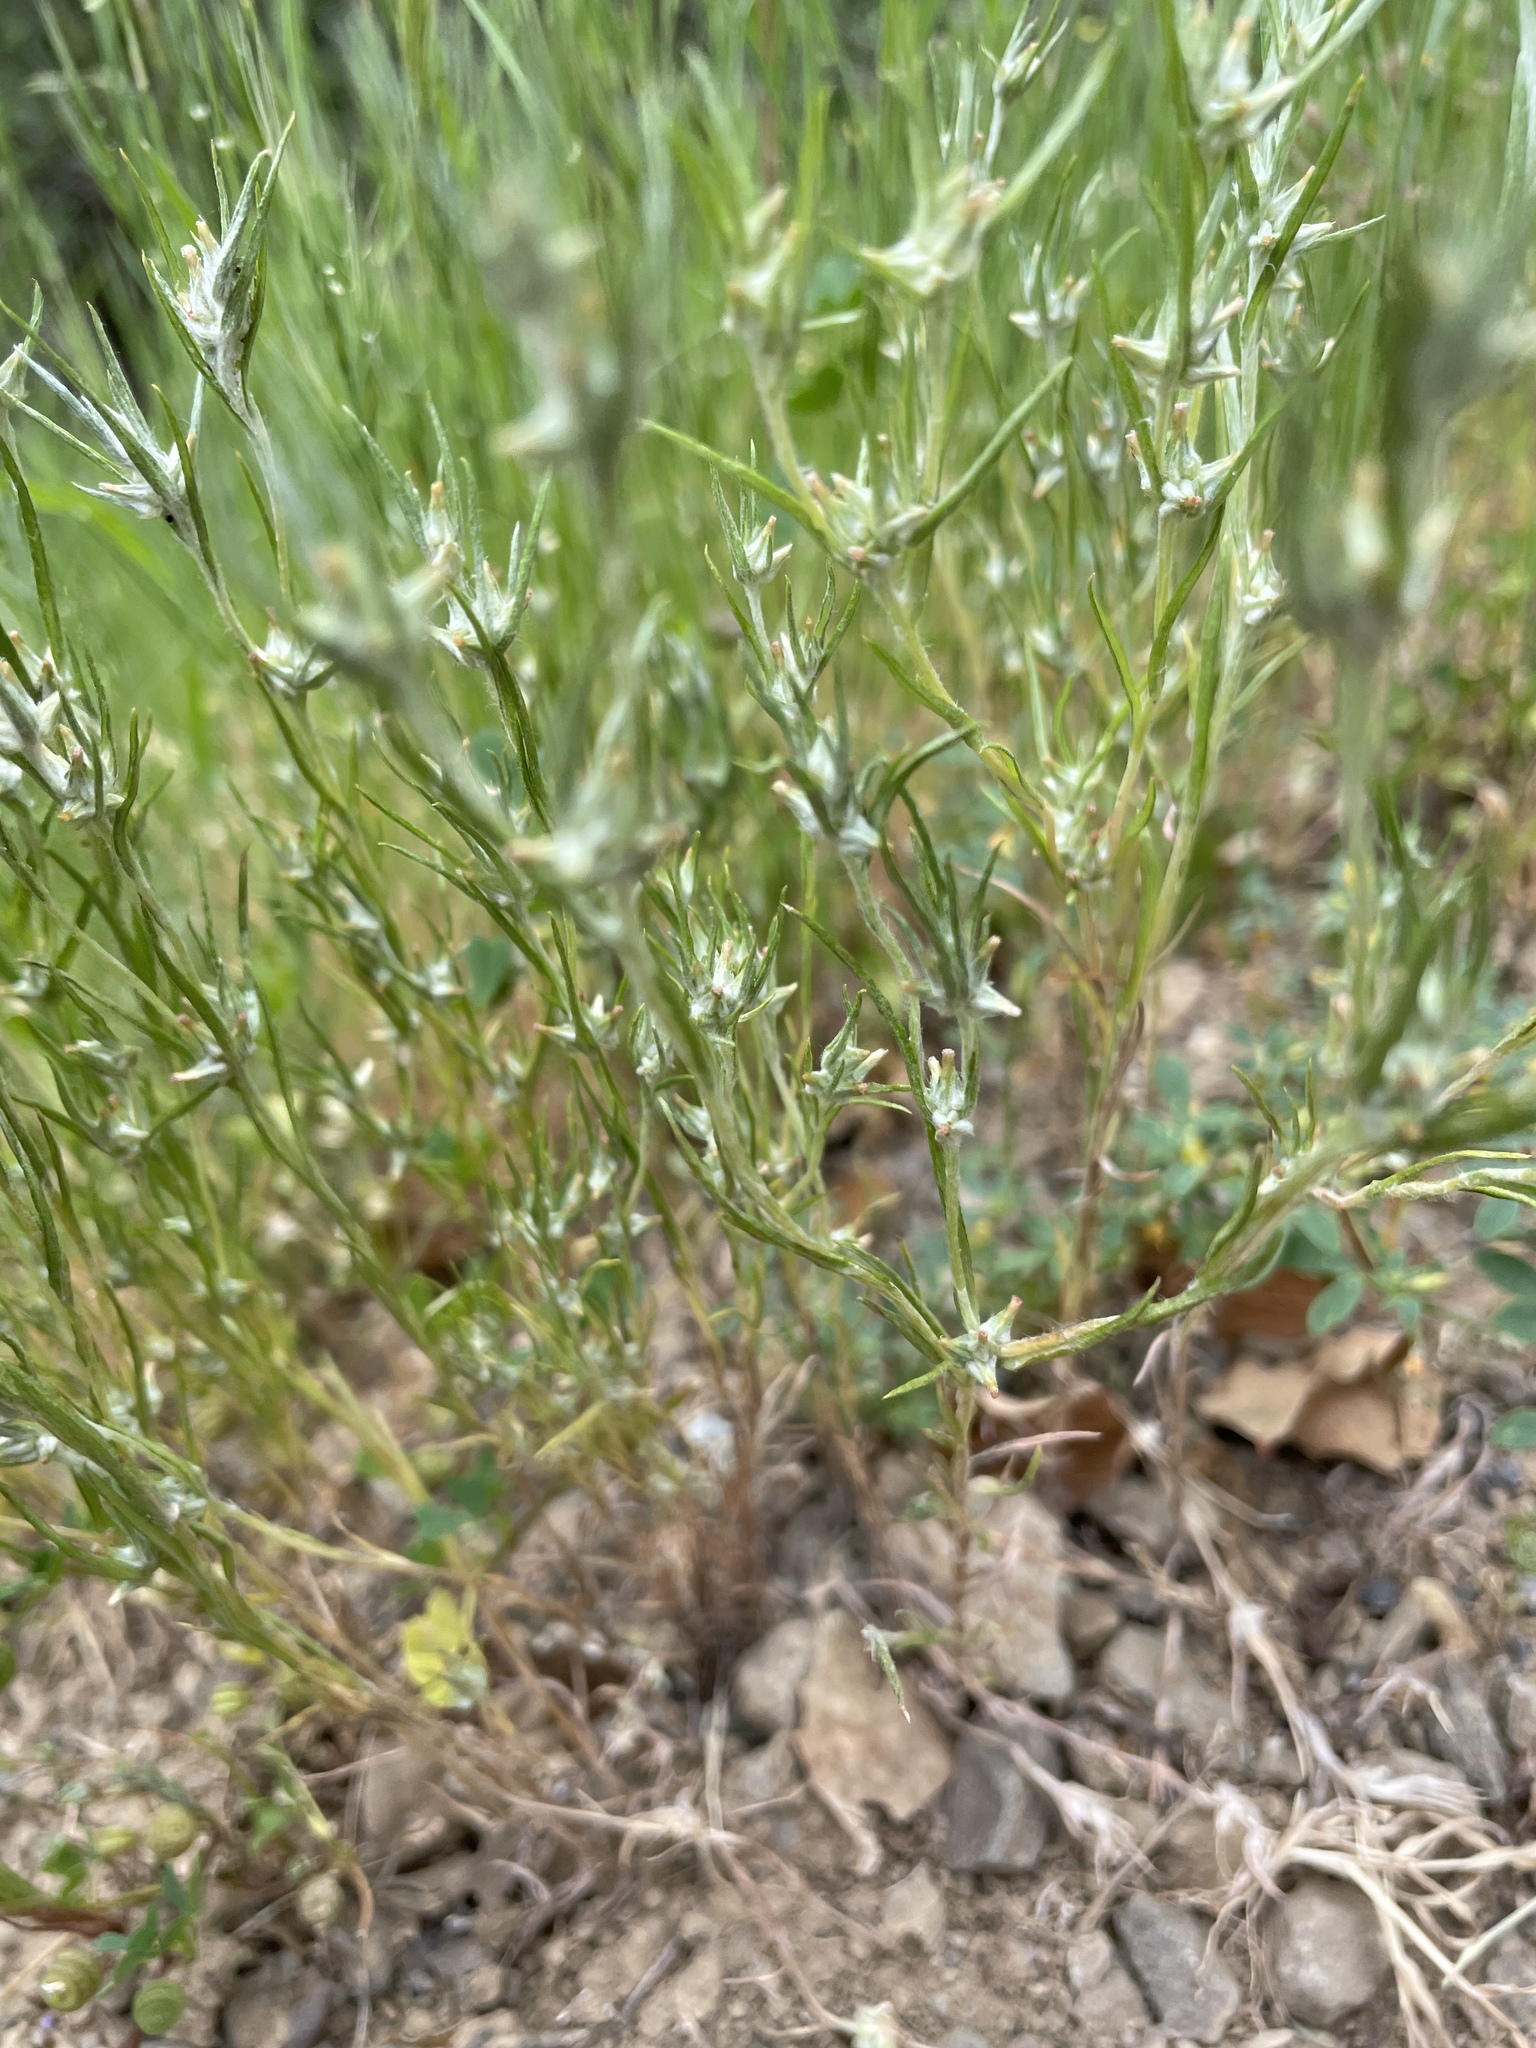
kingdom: Plantae
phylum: Tracheophyta
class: Magnoliopsida
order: Asterales
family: Asteraceae
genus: Logfia
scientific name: Logfia gallica
